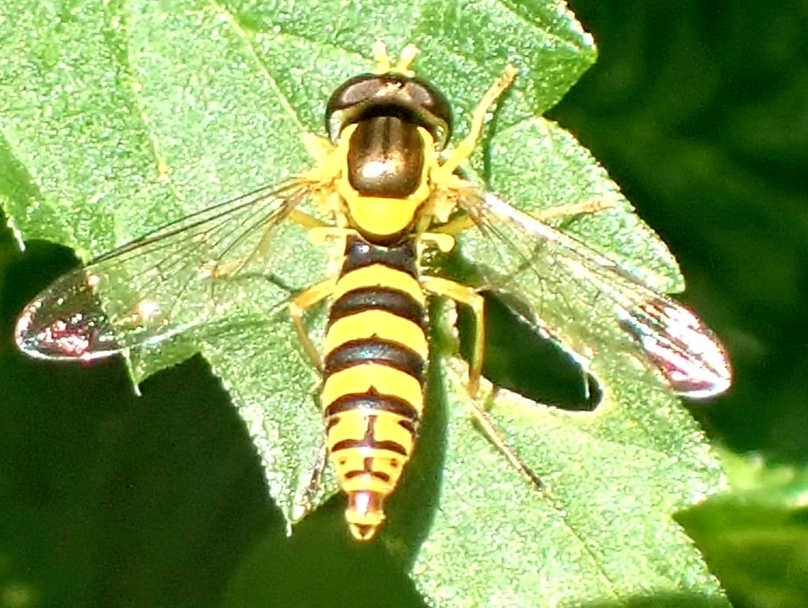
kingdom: Animalia
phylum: Arthropoda
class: Insecta
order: Diptera
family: Syrphidae
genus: Sphaerophoria
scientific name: Sphaerophoria
